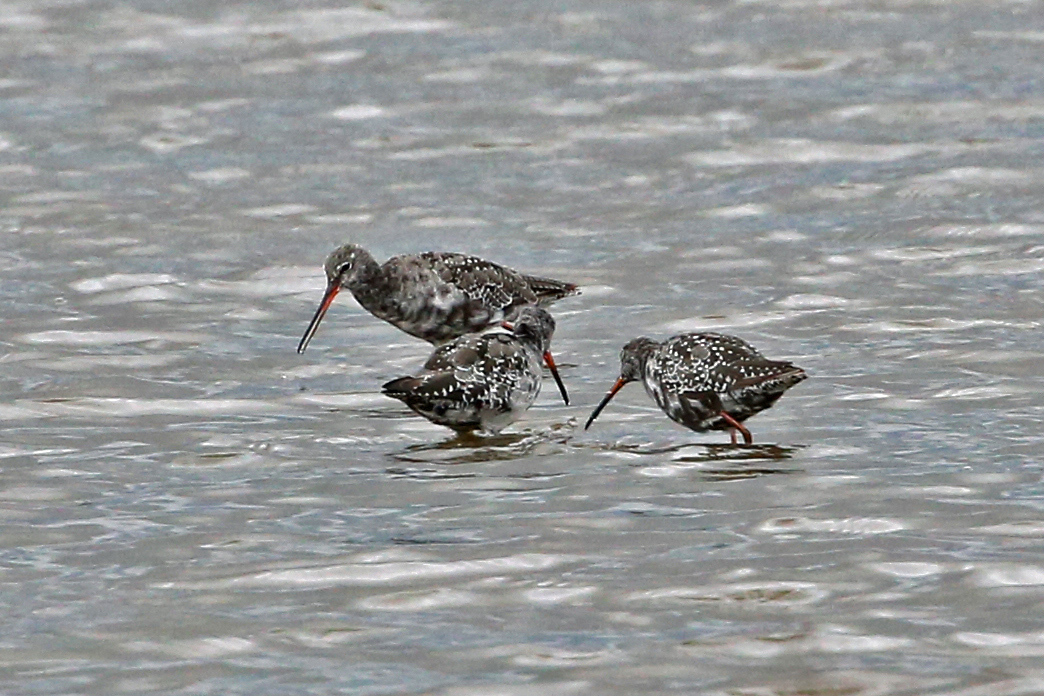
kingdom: Animalia
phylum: Chordata
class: Aves
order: Charadriiformes
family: Scolopacidae
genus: Tringa
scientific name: Tringa erythropus
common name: Spotted redshank
